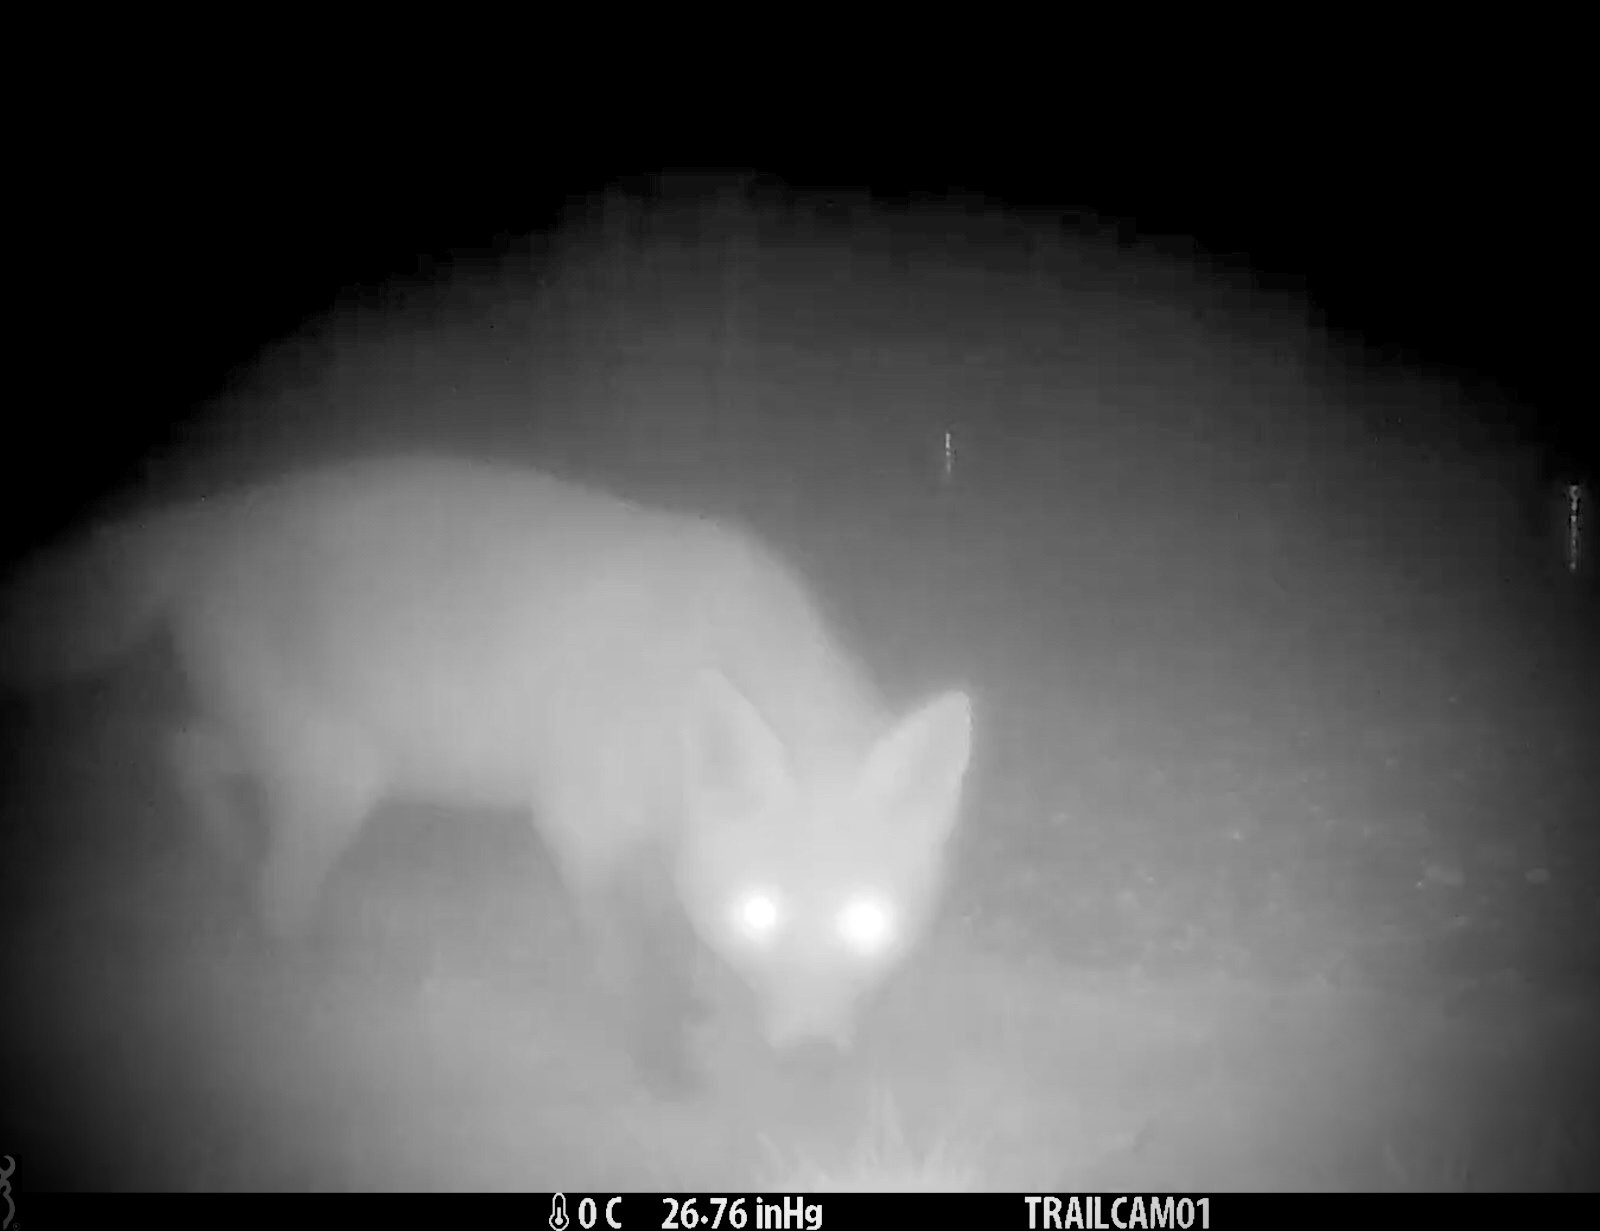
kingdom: Animalia
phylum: Chordata
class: Mammalia
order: Carnivora
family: Canidae
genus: Vulpes
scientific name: Vulpes vulpes
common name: Red fox
